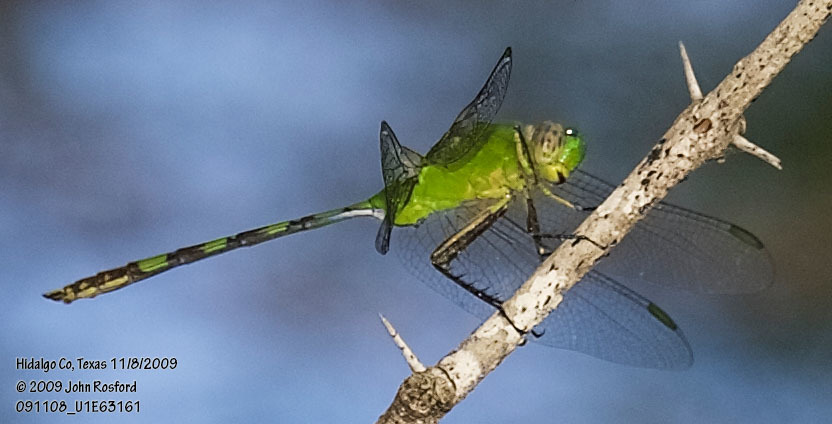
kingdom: Animalia
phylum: Arthropoda
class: Insecta
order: Odonata
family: Libellulidae
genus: Erythemis
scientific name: Erythemis vesiculosa
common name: Great pondhawk
